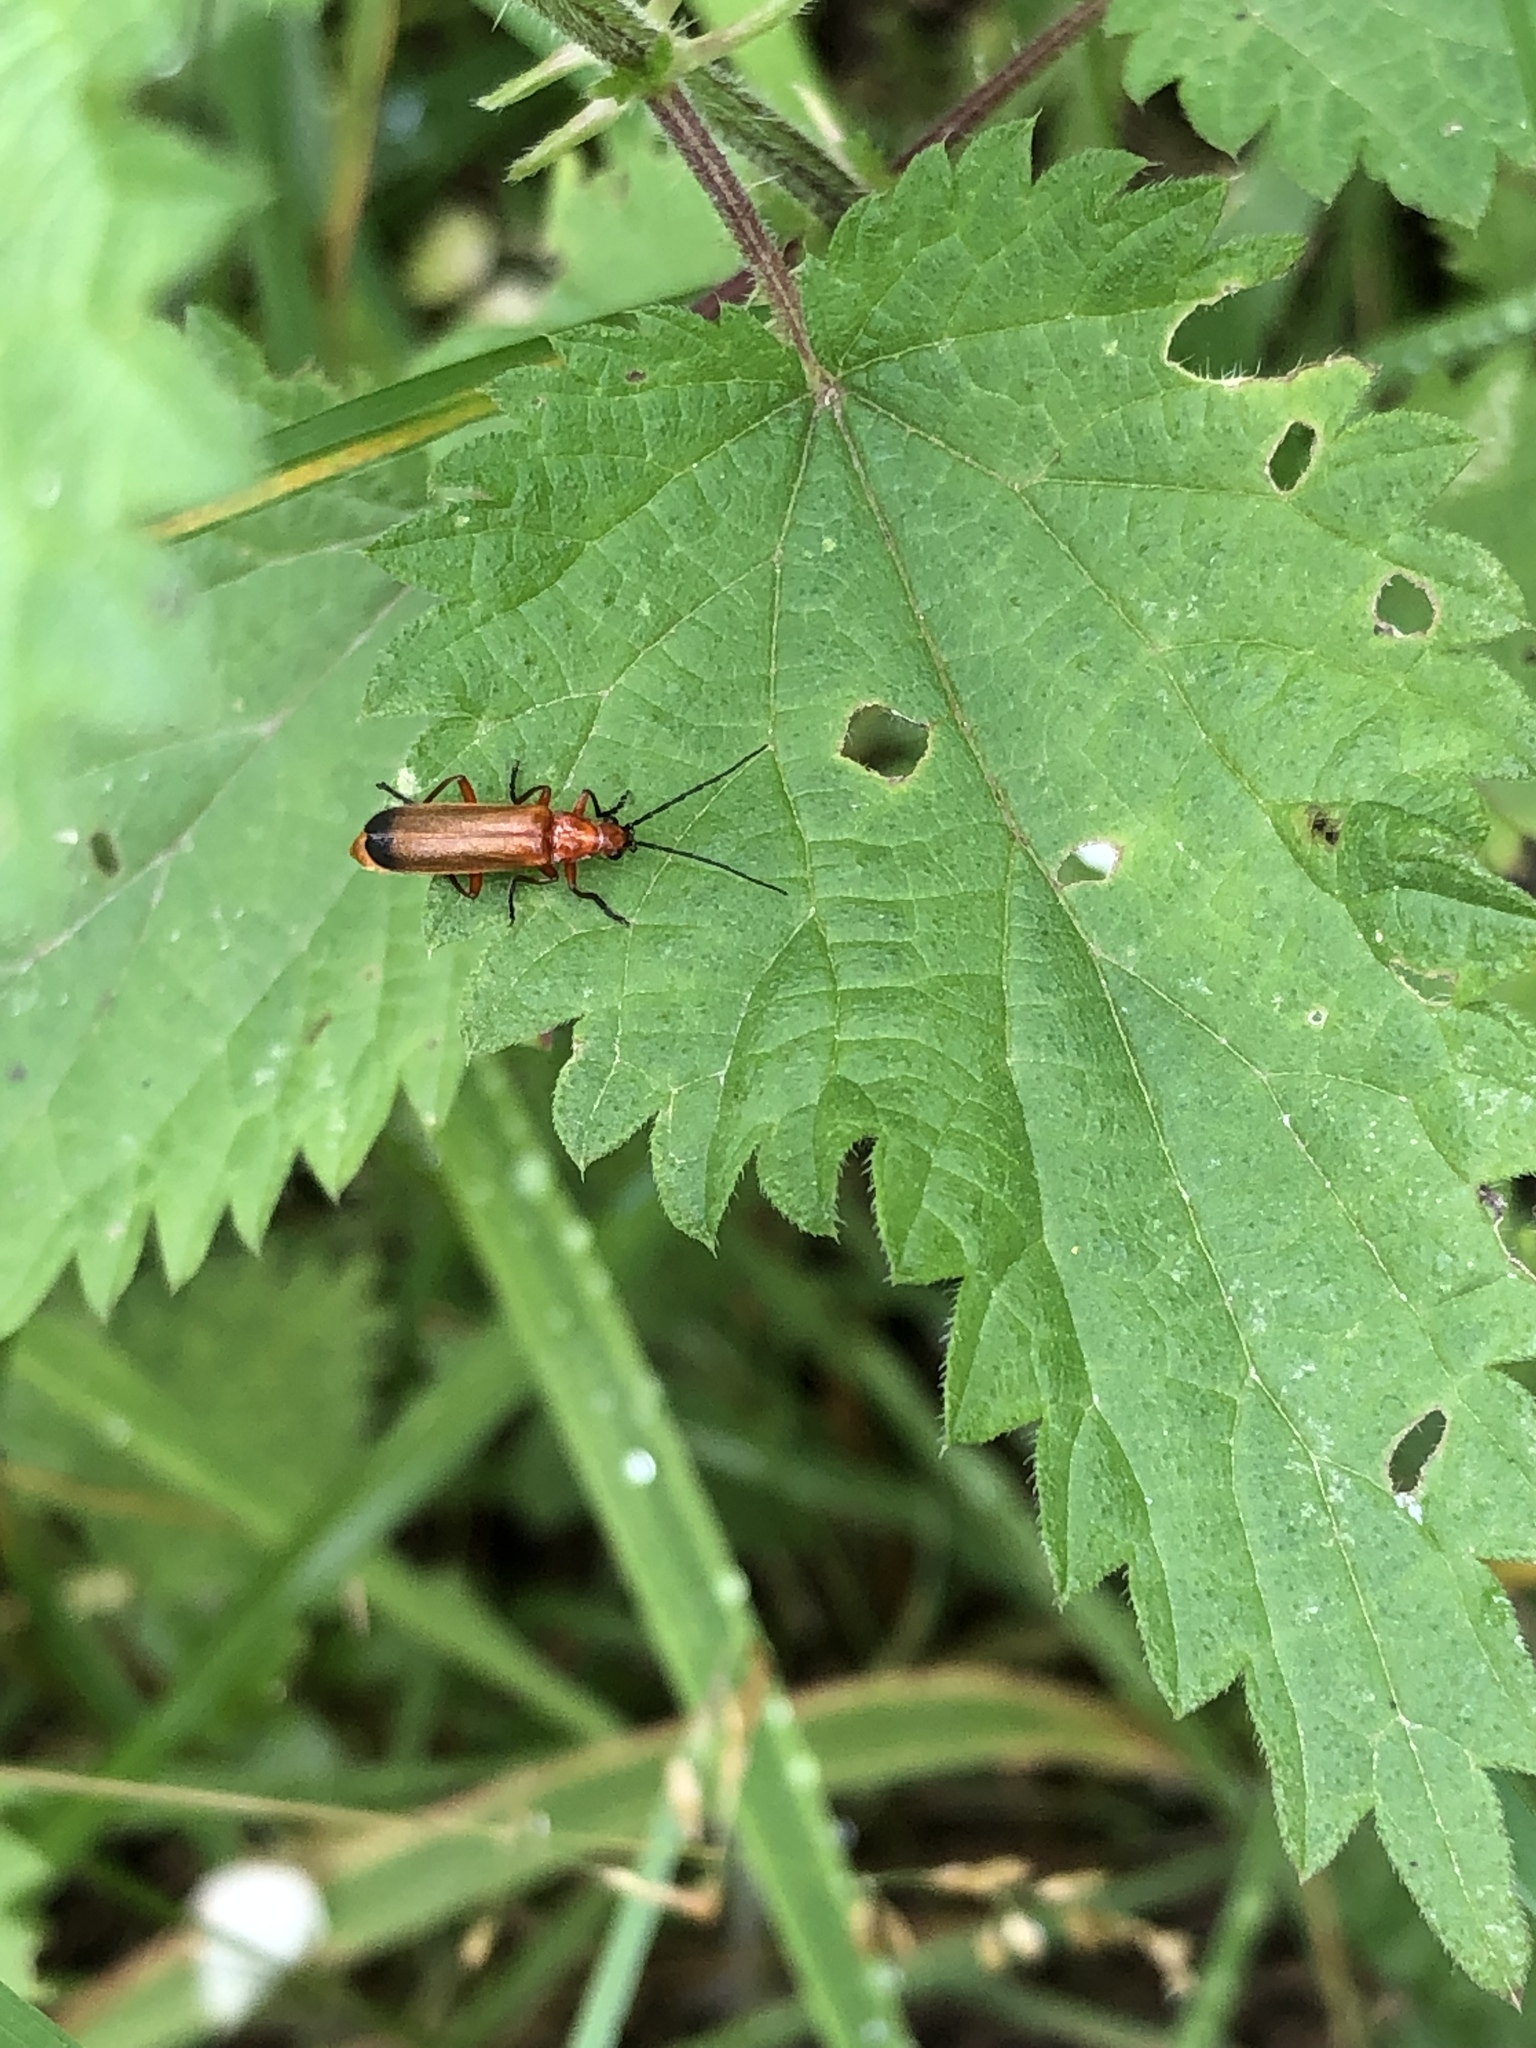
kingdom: Animalia
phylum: Arthropoda
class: Insecta
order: Coleoptera
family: Cantharidae
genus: Rhagonycha
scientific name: Rhagonycha fulva
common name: Common red soldier beetle
